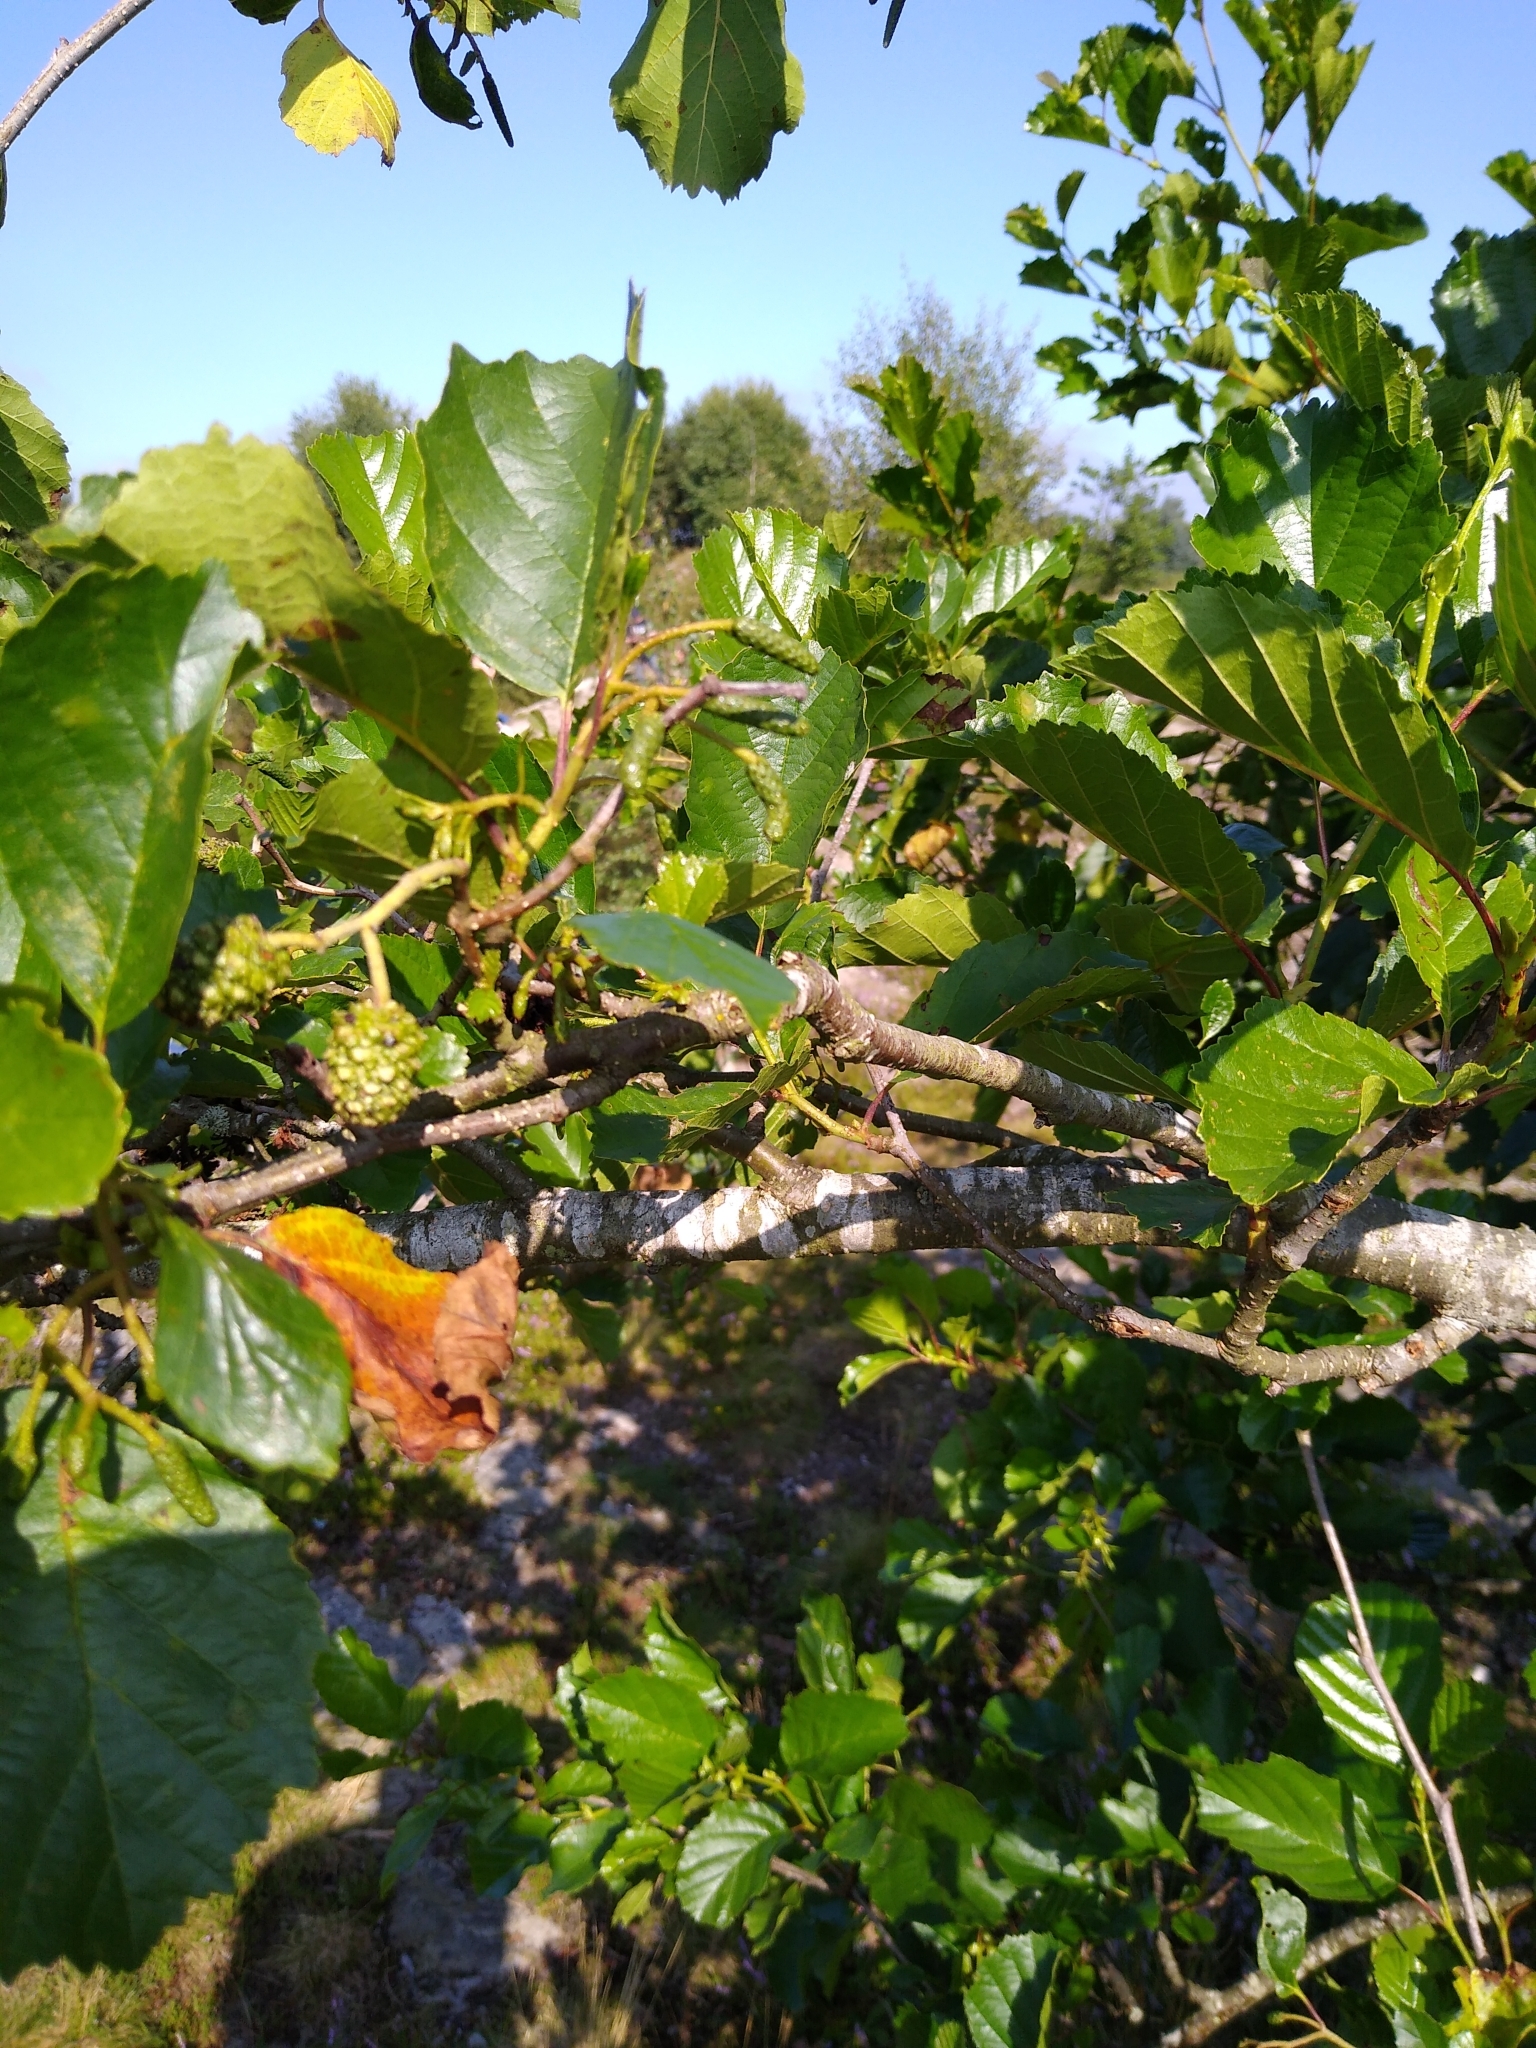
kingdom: Plantae
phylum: Tracheophyta
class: Magnoliopsida
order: Fagales
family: Betulaceae
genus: Alnus
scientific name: Alnus glutinosa
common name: Black alder
